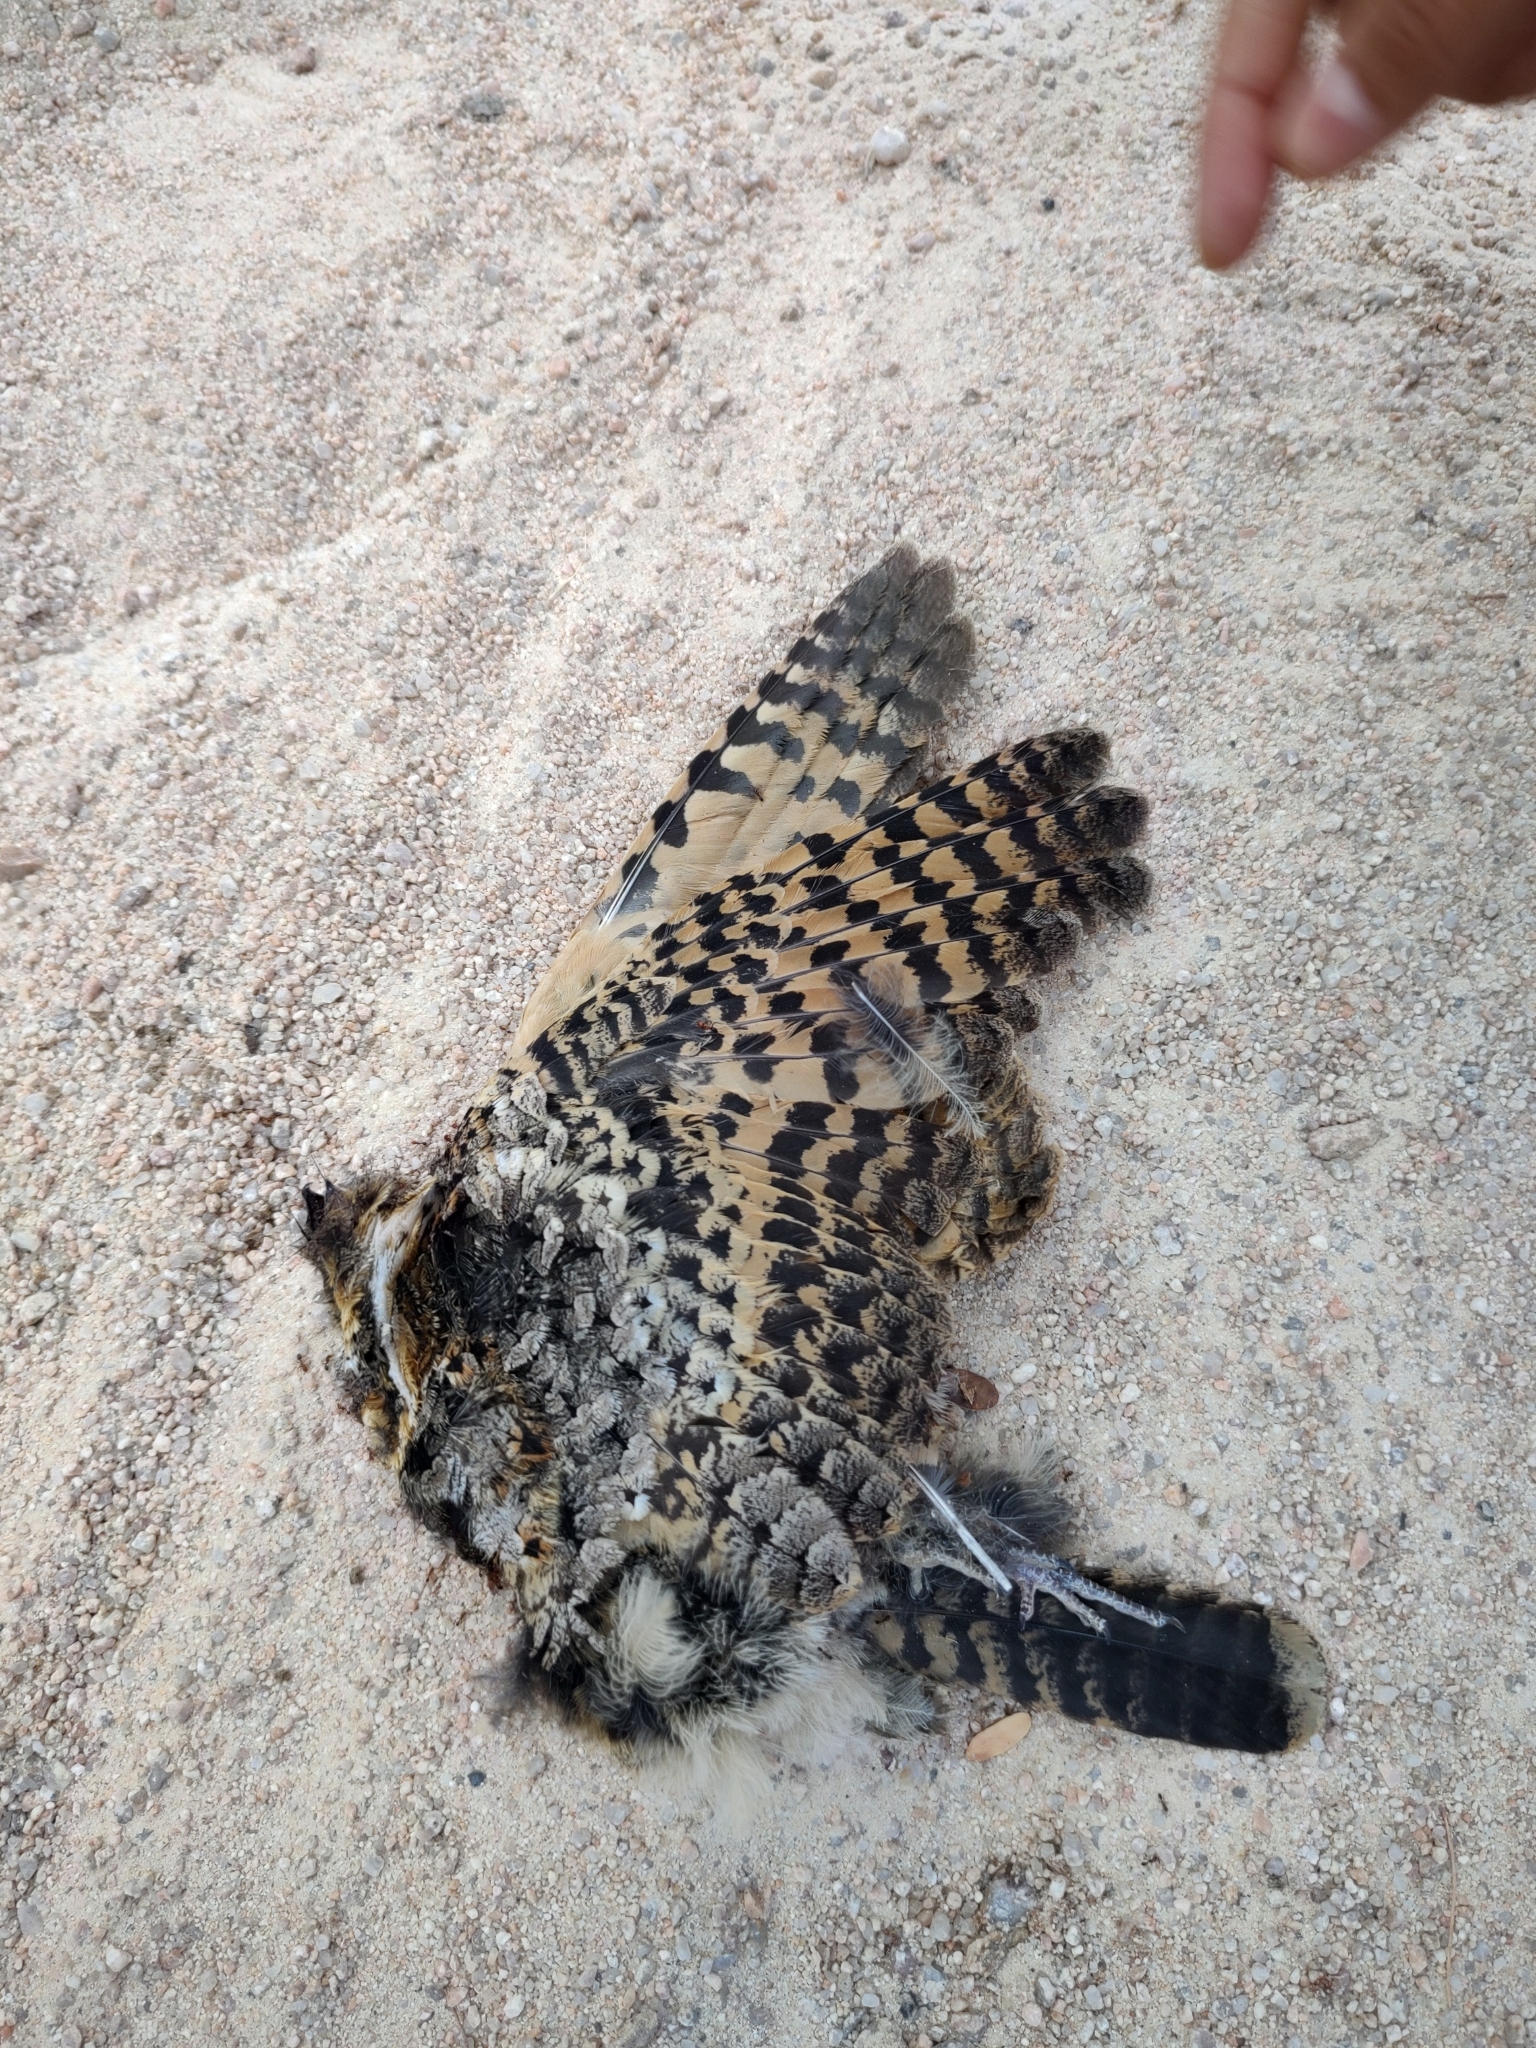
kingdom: Animalia
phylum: Chordata
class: Aves
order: Caprimulgiformes
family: Caprimulgidae
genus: Phalaenoptilus
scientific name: Phalaenoptilus nuttallii
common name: Common poorwill
